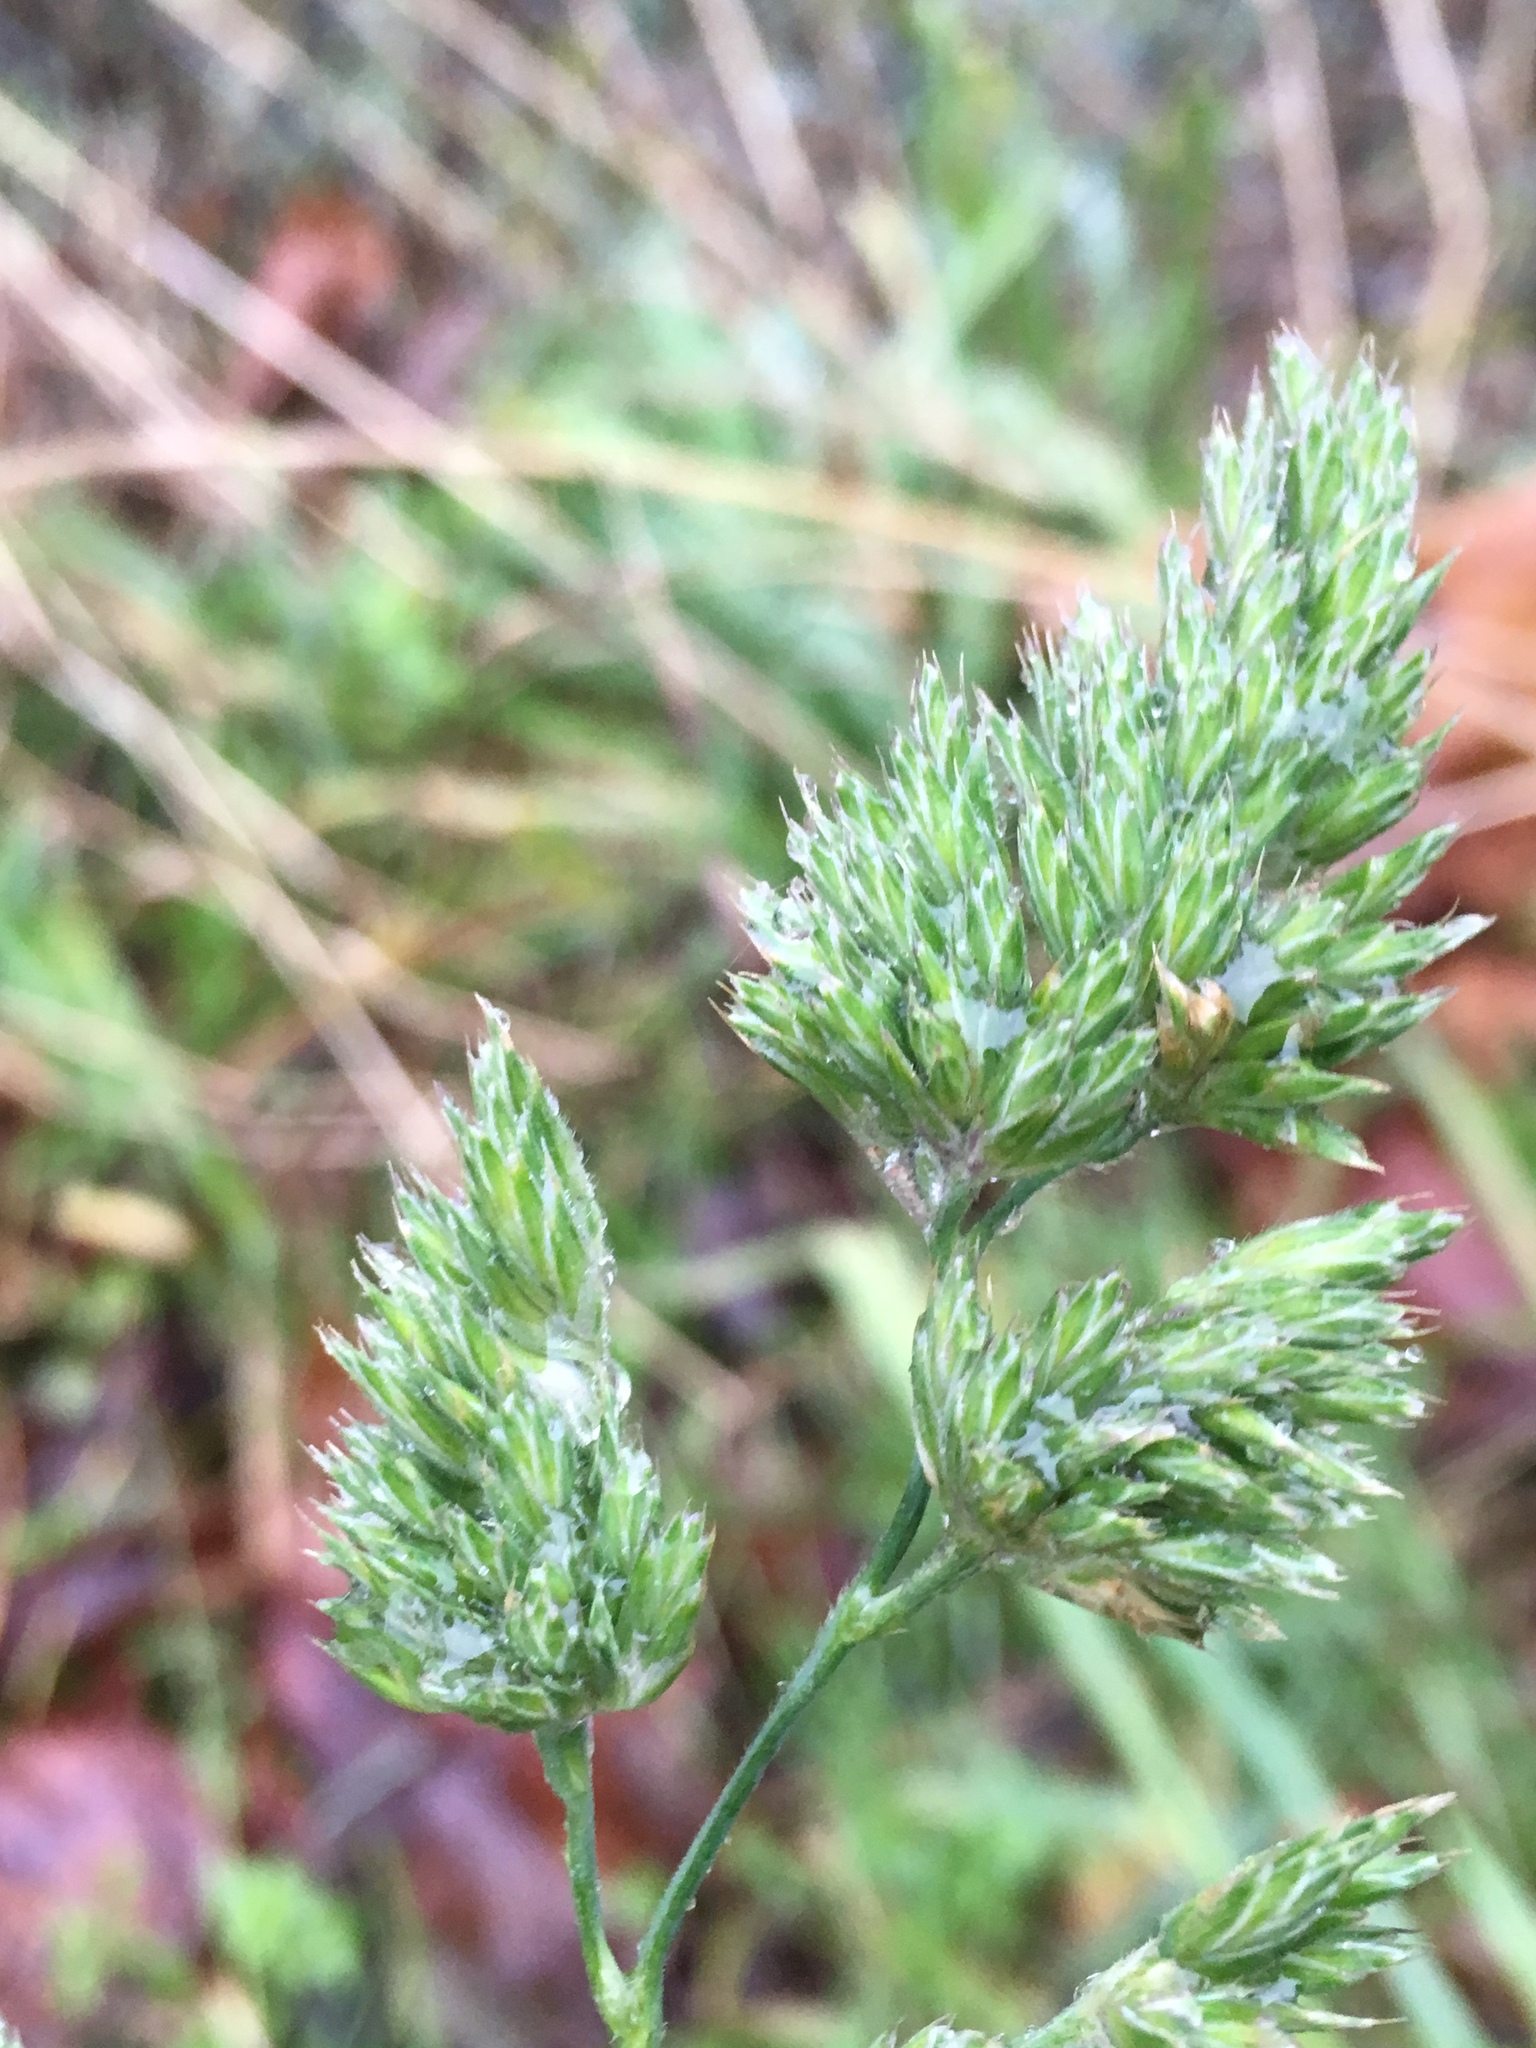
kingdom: Plantae
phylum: Tracheophyta
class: Liliopsida
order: Poales
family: Poaceae
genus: Dactylis
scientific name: Dactylis glomerata
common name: Orchardgrass
